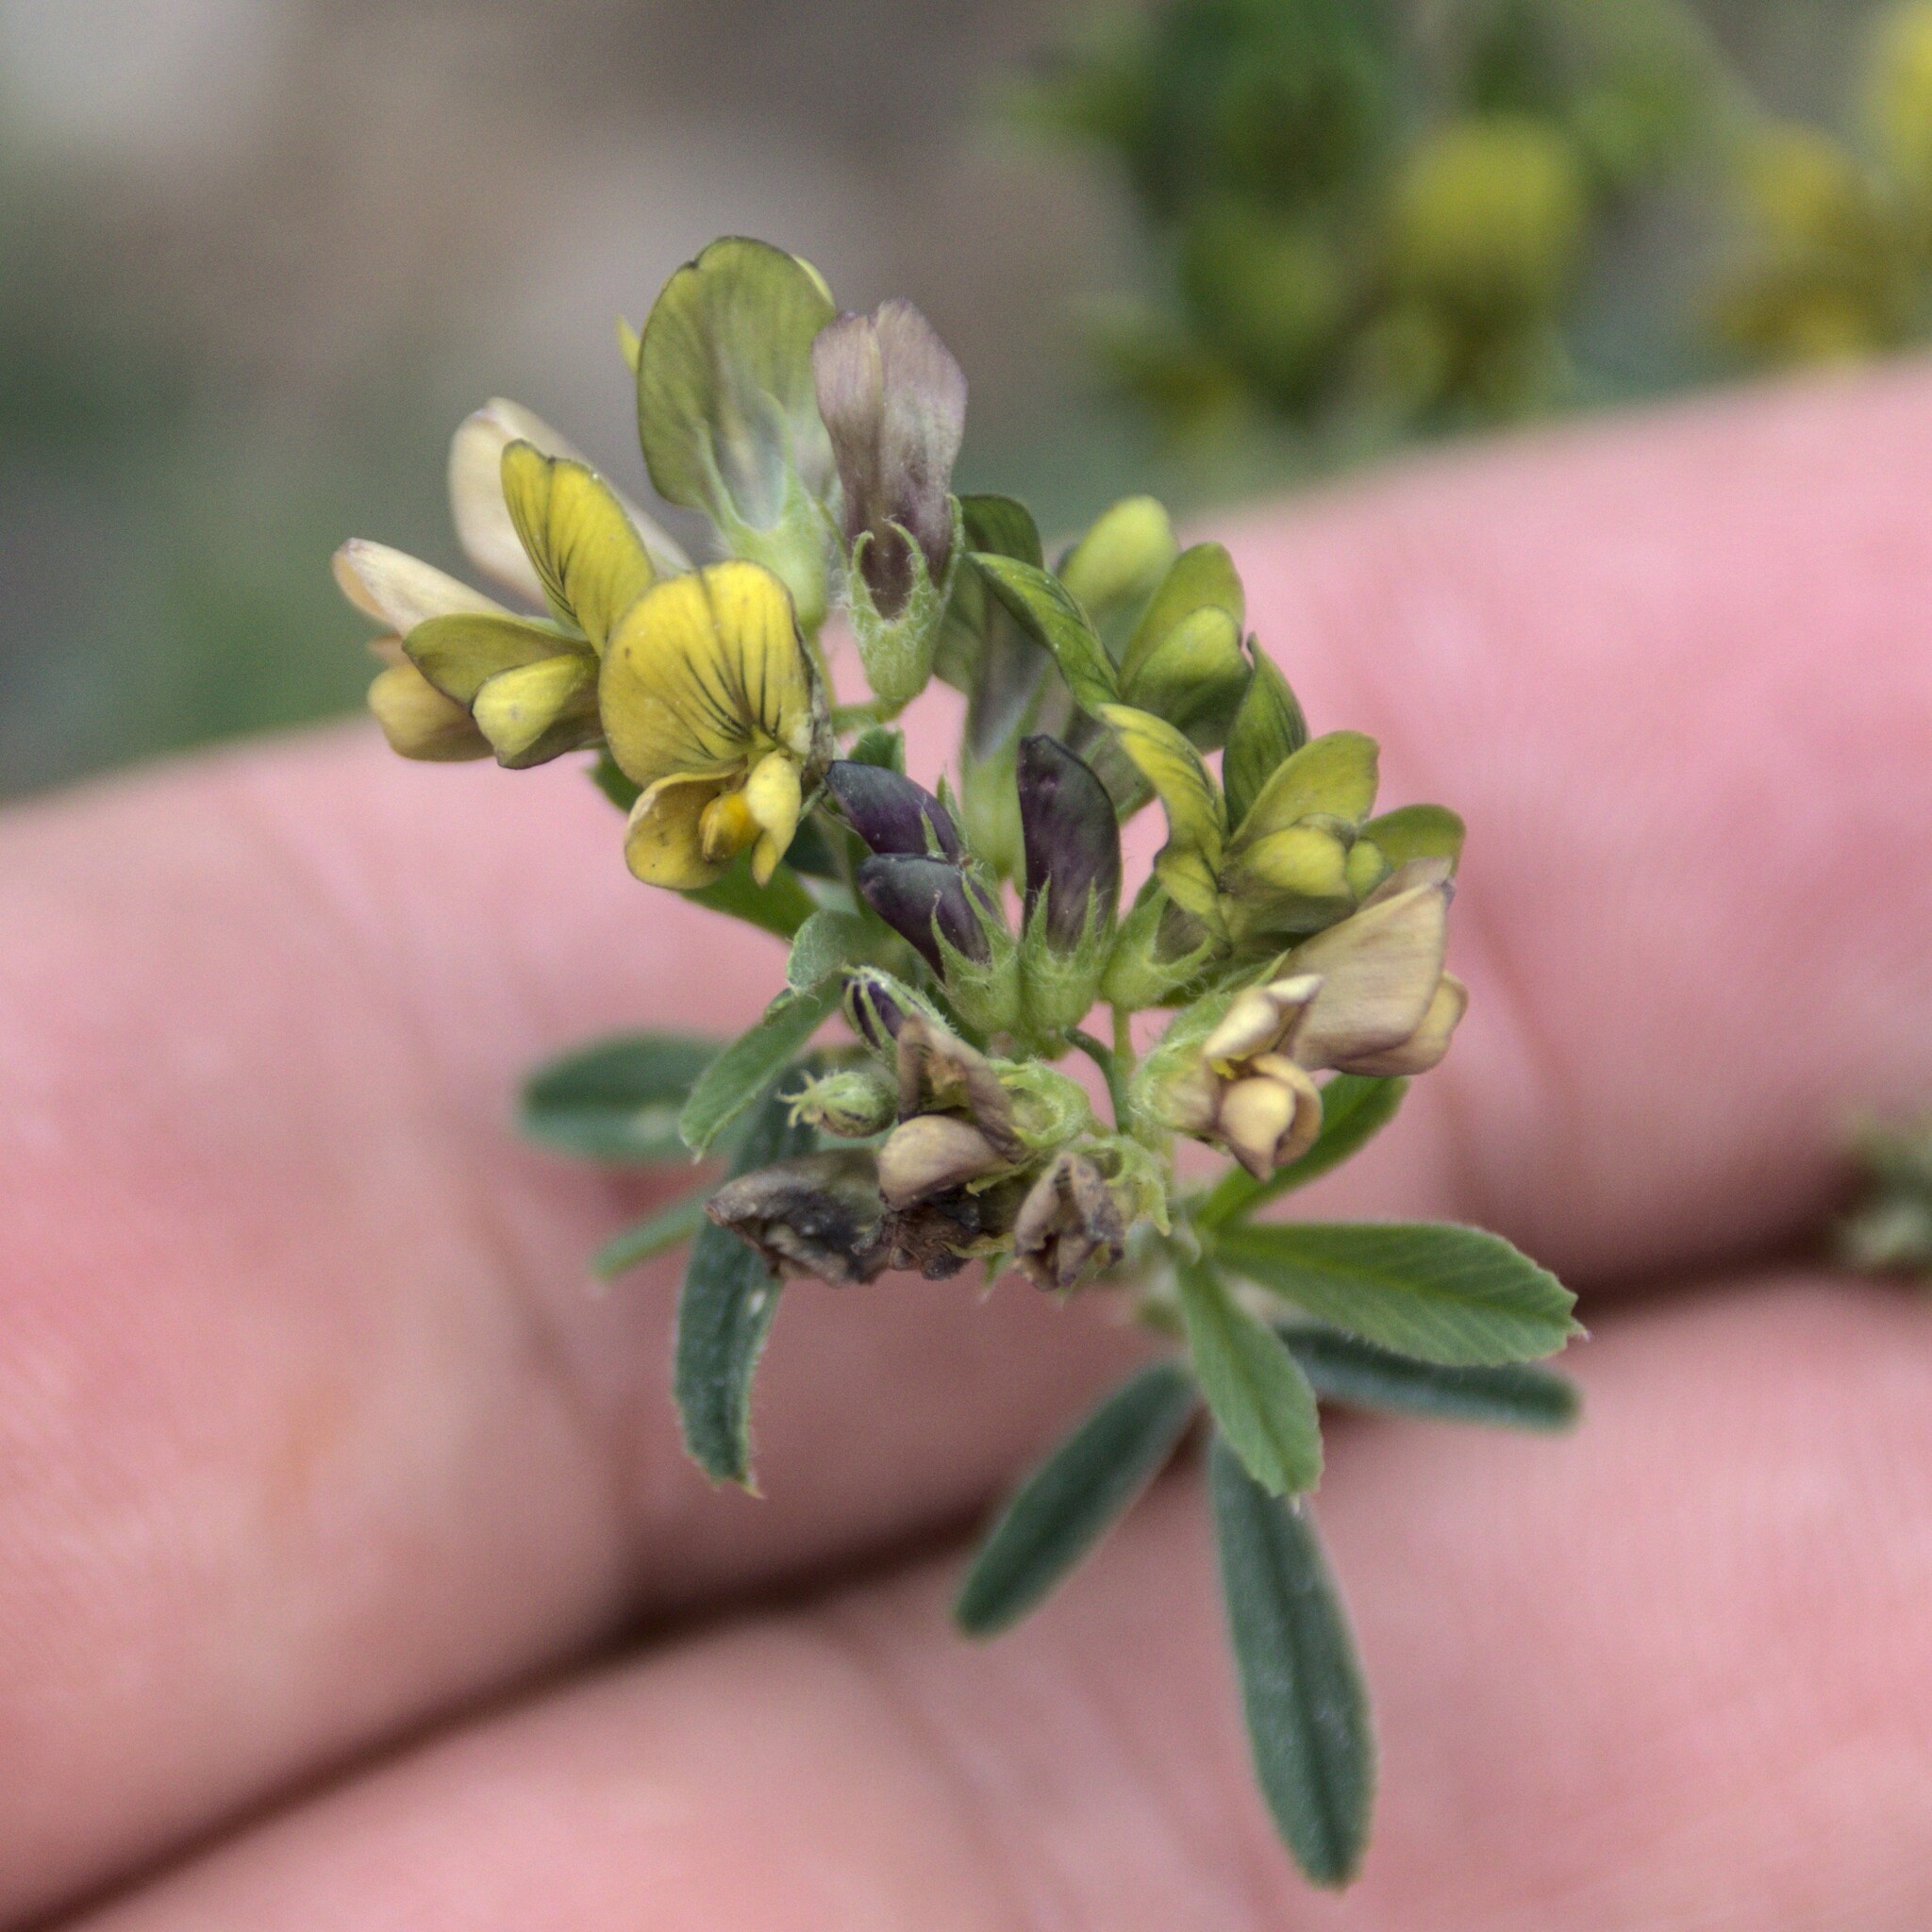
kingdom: Plantae
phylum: Tracheophyta
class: Magnoliopsida
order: Fabales
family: Fabaceae
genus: Medicago
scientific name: Medicago varia
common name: Sand lucerne
